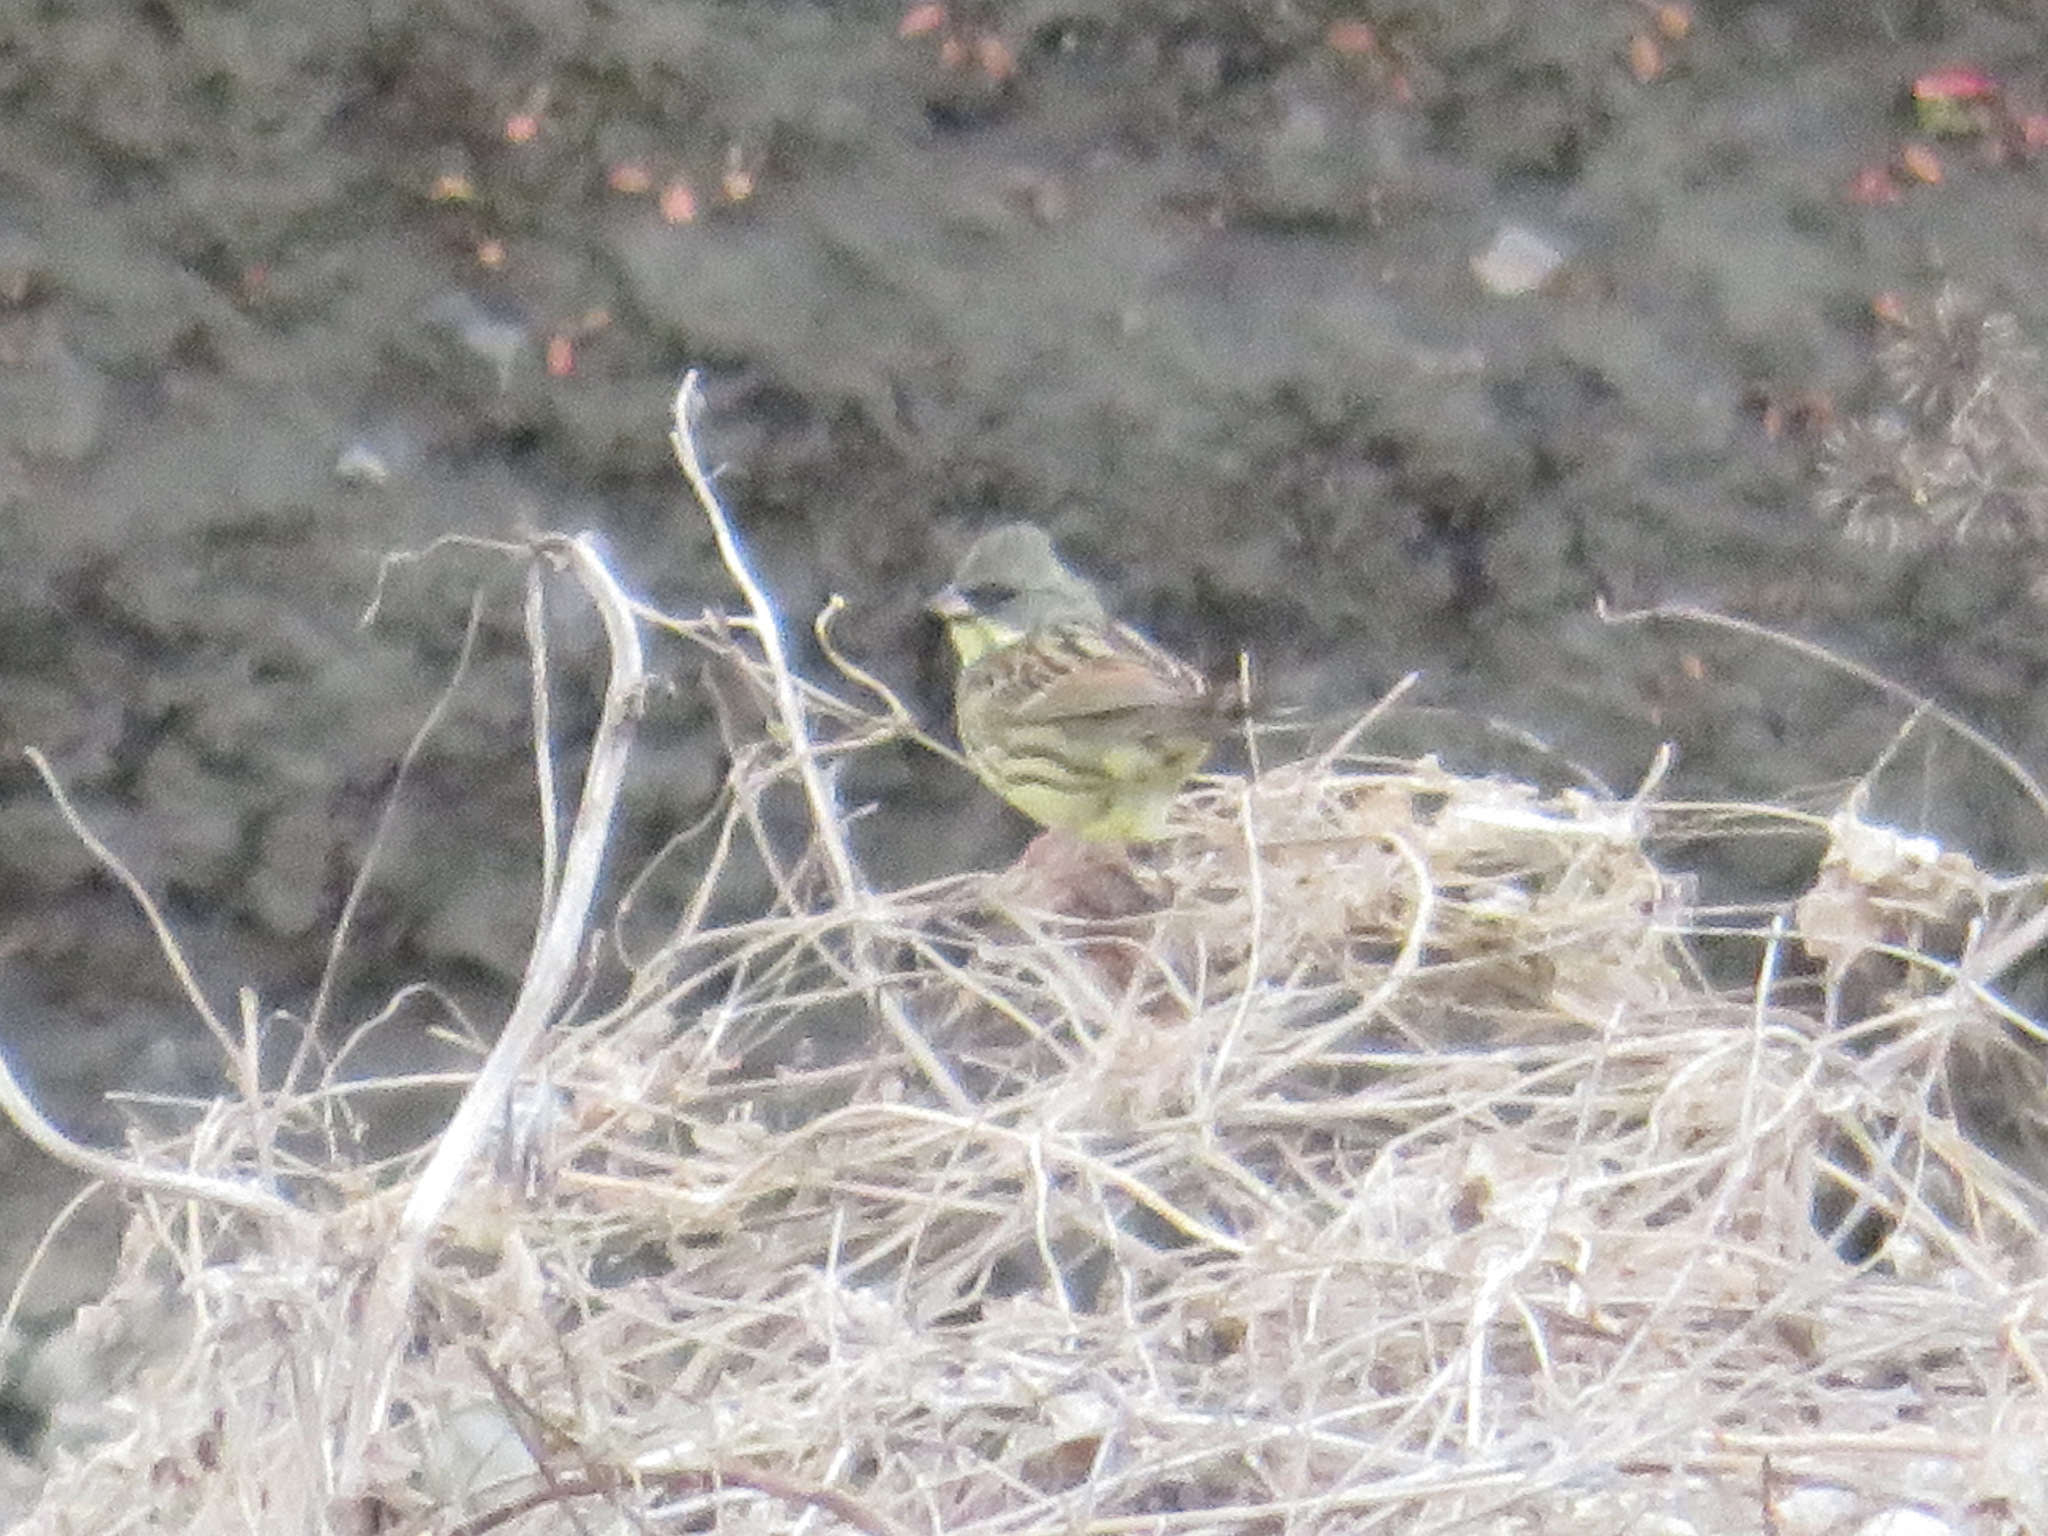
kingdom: Animalia
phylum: Chordata
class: Aves
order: Passeriformes
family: Emberizidae
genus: Emberiza
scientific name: Emberiza personata
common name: Masked bunting
